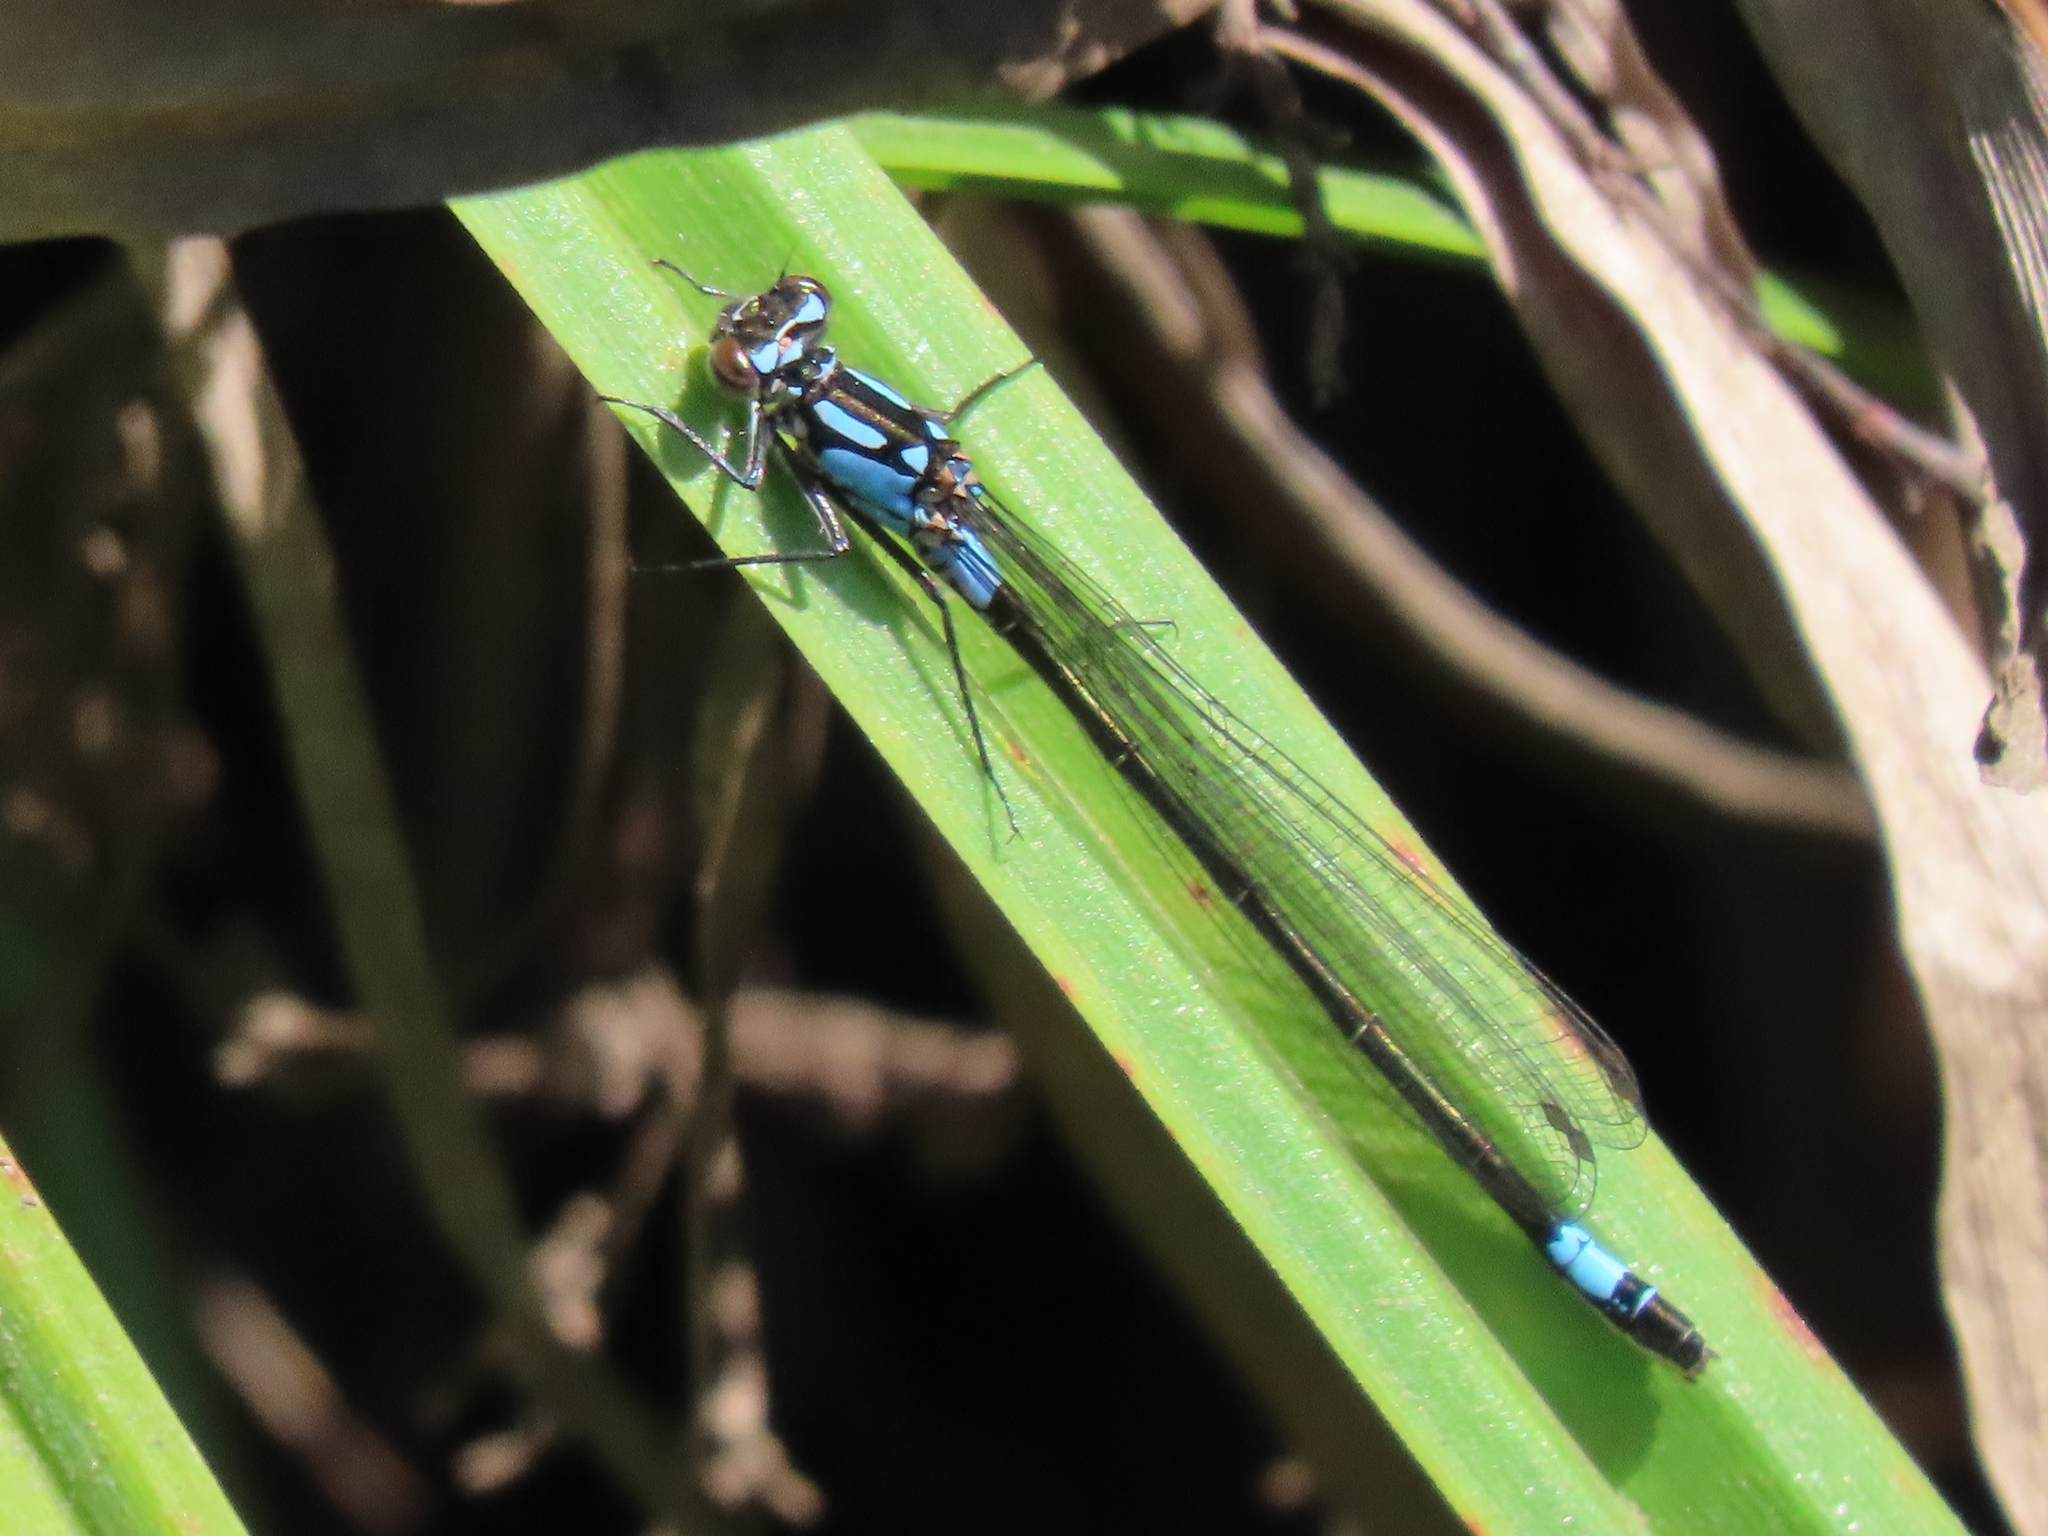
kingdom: Animalia
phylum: Arthropoda
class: Insecta
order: Odonata
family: Coenagrionidae
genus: Zoniagrion
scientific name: Zoniagrion exclamationis
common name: Exclamation damsel
